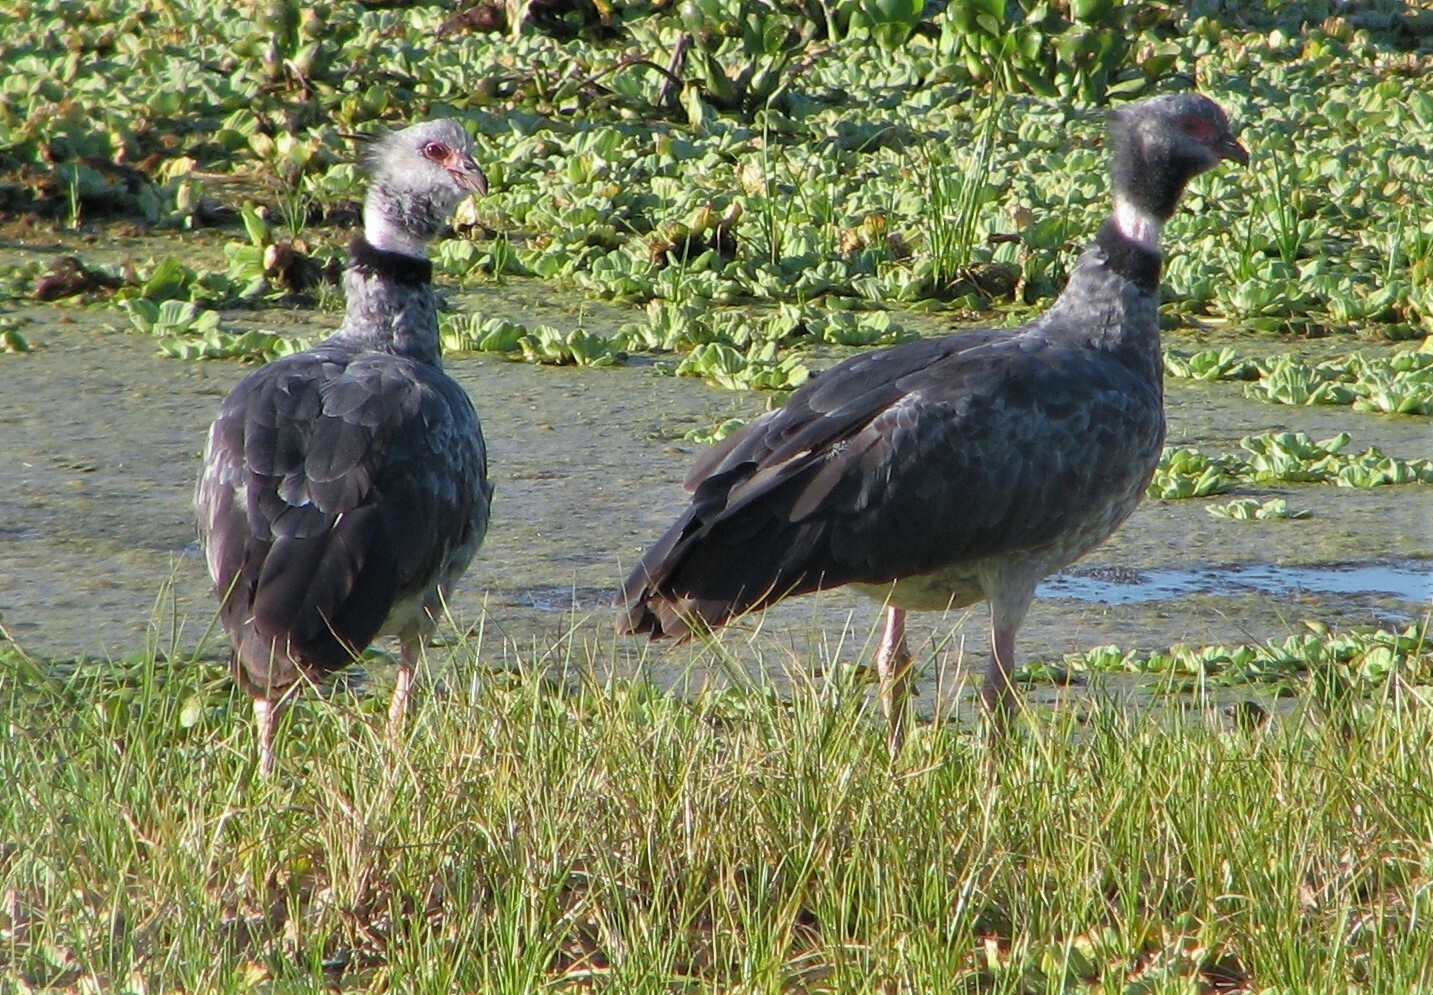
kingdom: Animalia
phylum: Chordata
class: Aves
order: Anseriformes
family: Anhimidae
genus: Chauna
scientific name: Chauna torquata
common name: Southern screamer
